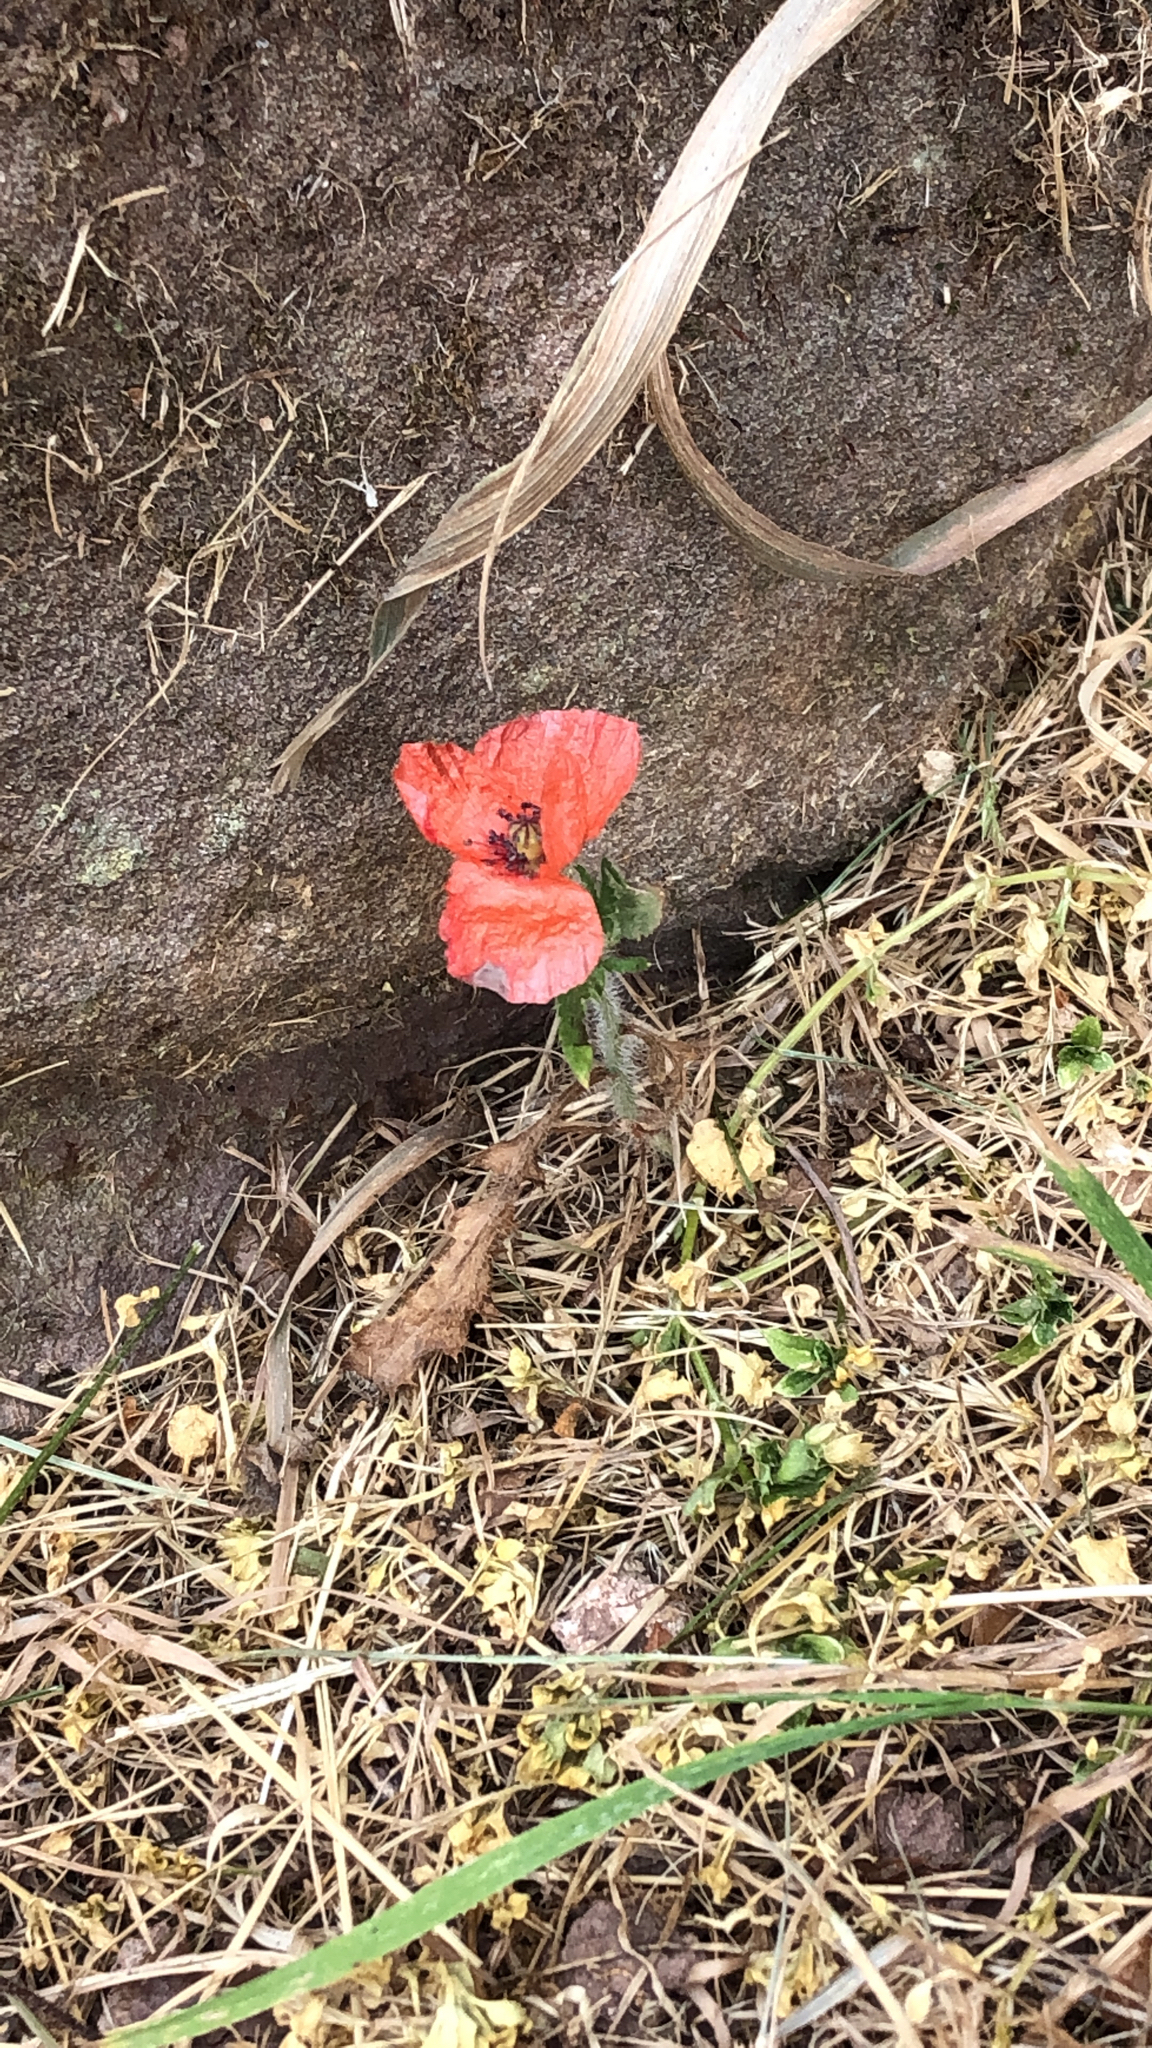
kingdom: Plantae
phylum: Tracheophyta
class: Magnoliopsida
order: Ranunculales
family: Papaveraceae
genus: Papaver
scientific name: Papaver rhoeas
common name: Corn poppy
